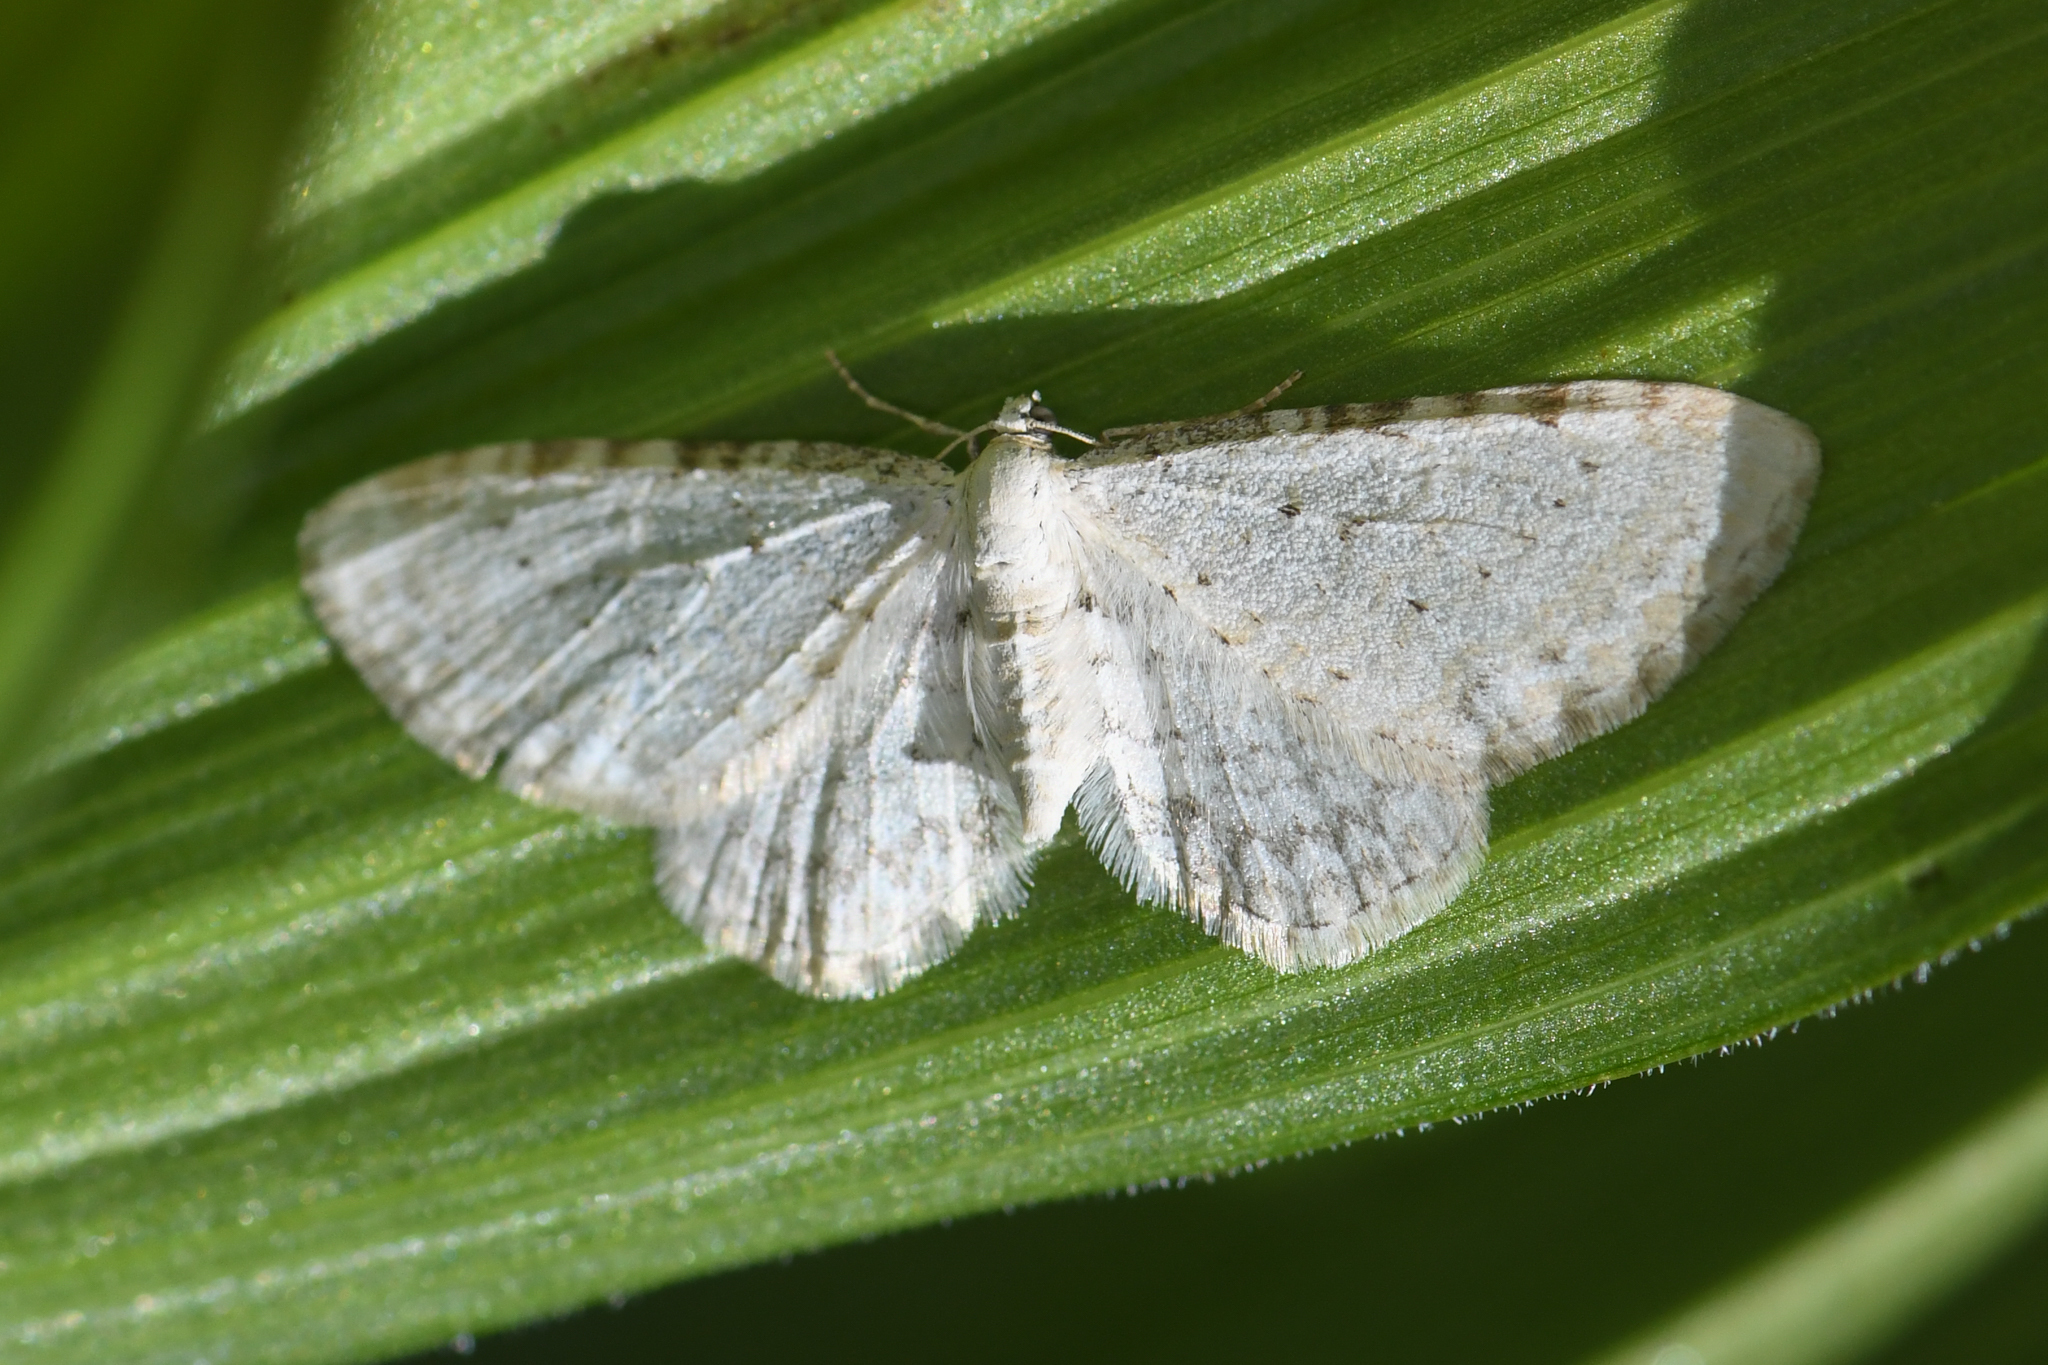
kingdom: Animalia
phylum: Arthropoda
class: Insecta
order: Lepidoptera
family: Geometridae
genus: Eupithecia
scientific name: Eupithecia cretaceata
